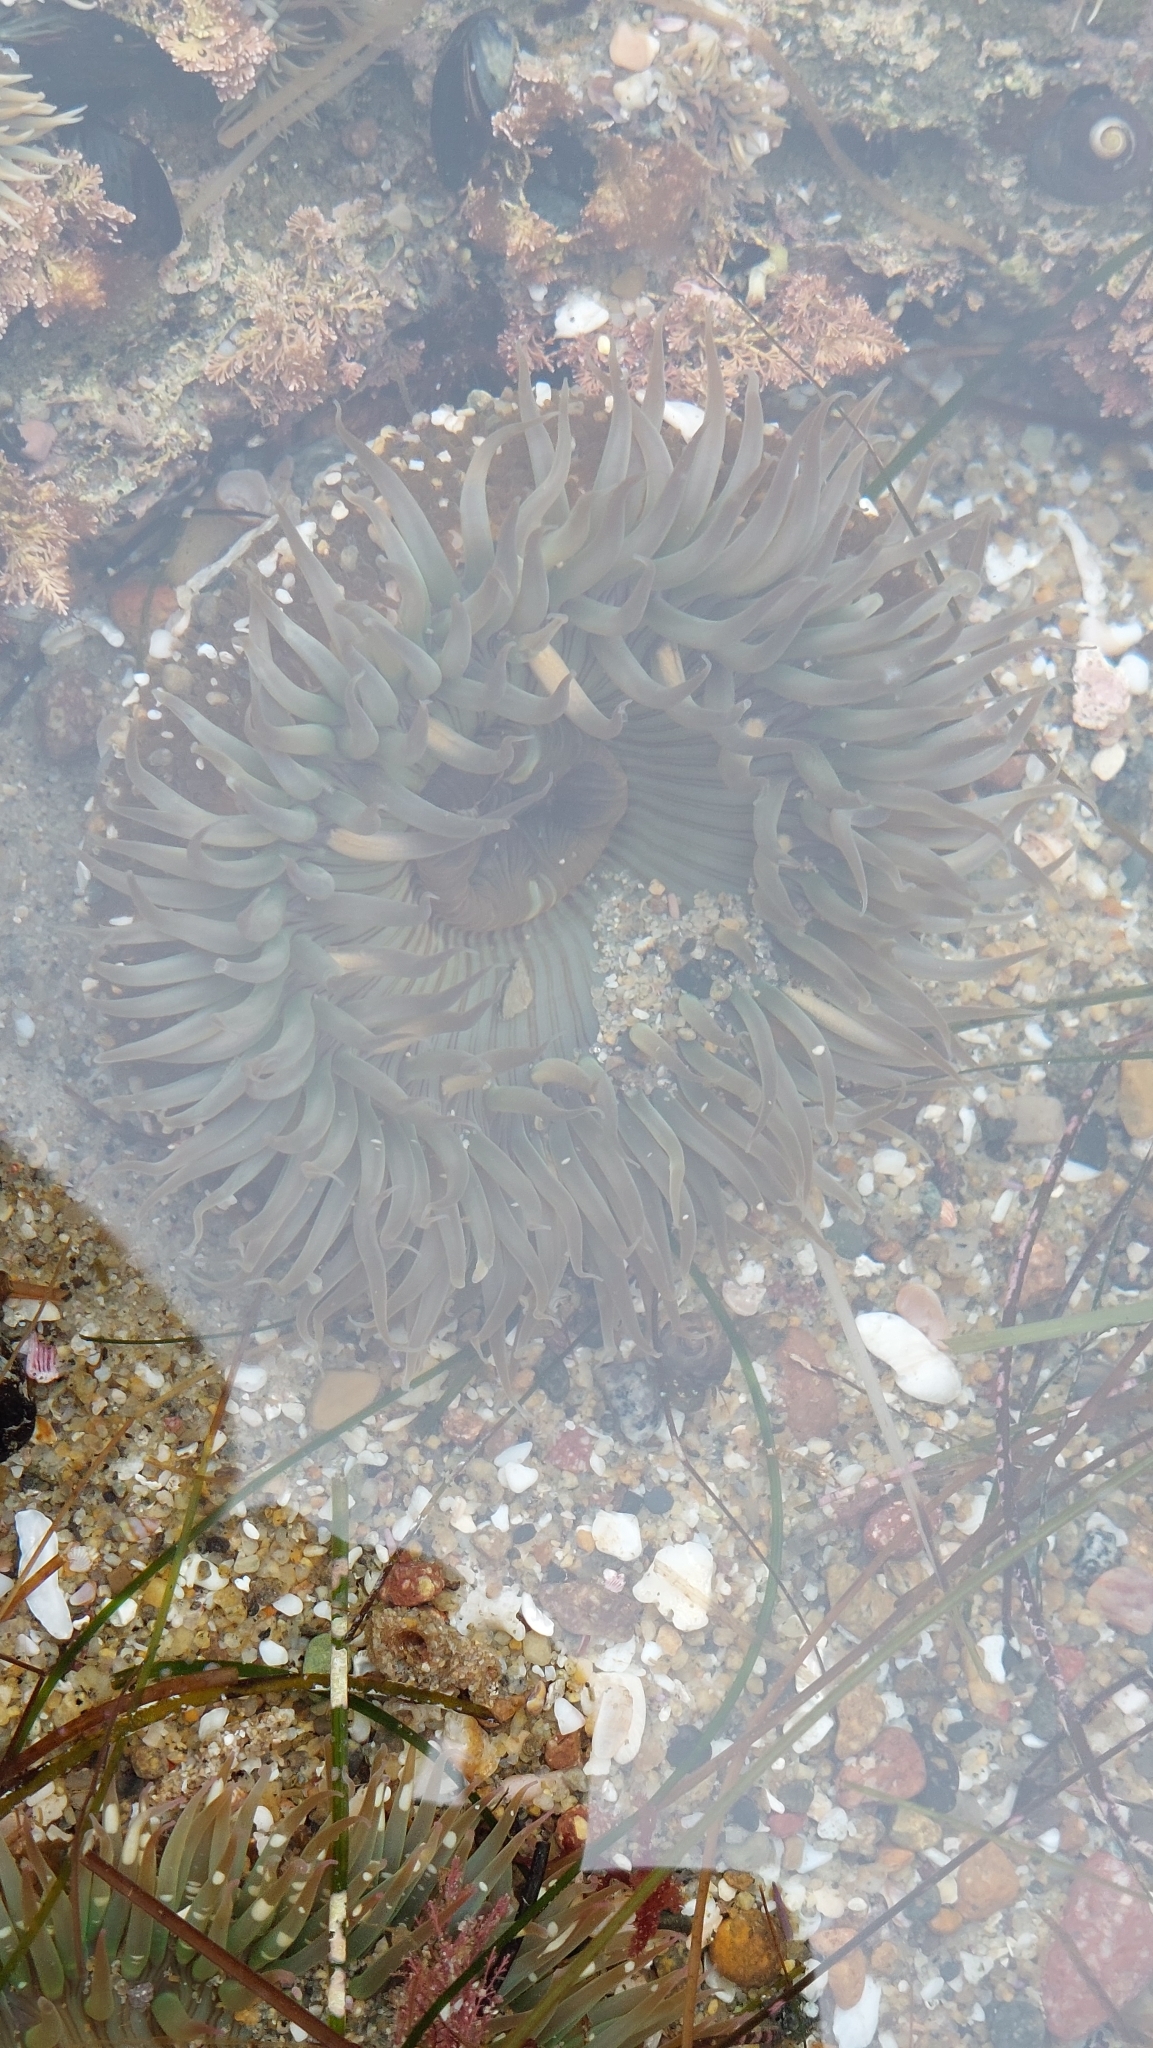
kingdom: Animalia
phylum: Cnidaria
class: Anthozoa
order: Actiniaria
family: Actiniidae
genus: Anthopleura
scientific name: Anthopleura sola
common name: Sun anemone
